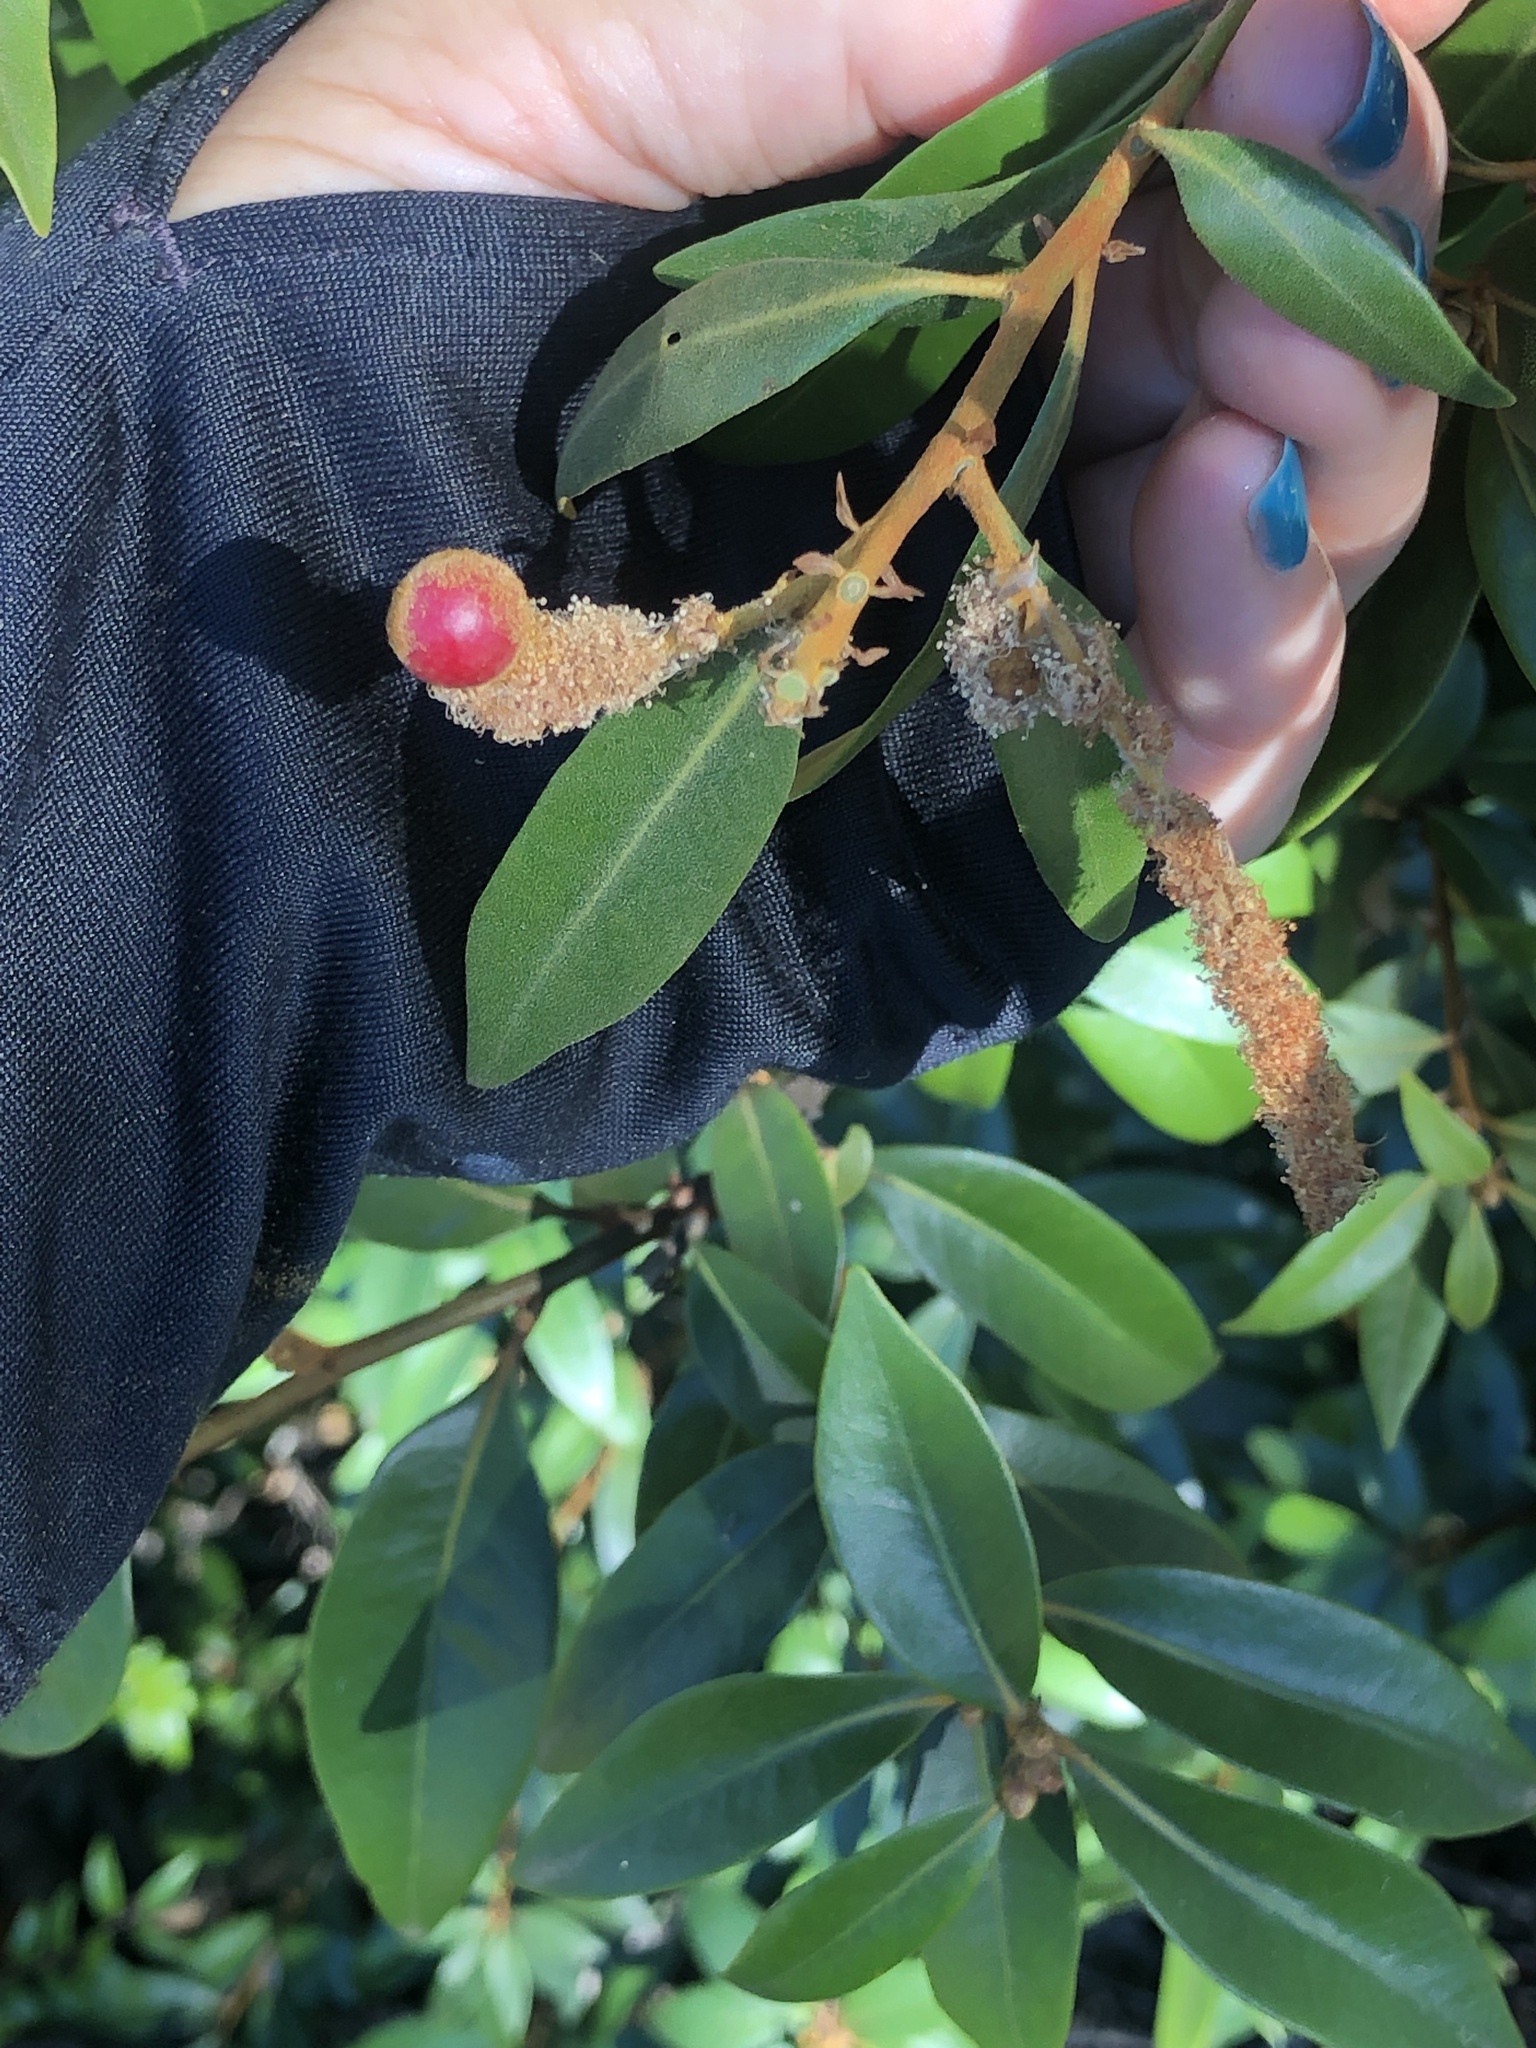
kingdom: Animalia
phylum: Arthropoda
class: Insecta
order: Hymenoptera
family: Cynipidae
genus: Synergus
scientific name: Synergus castanopsidis
